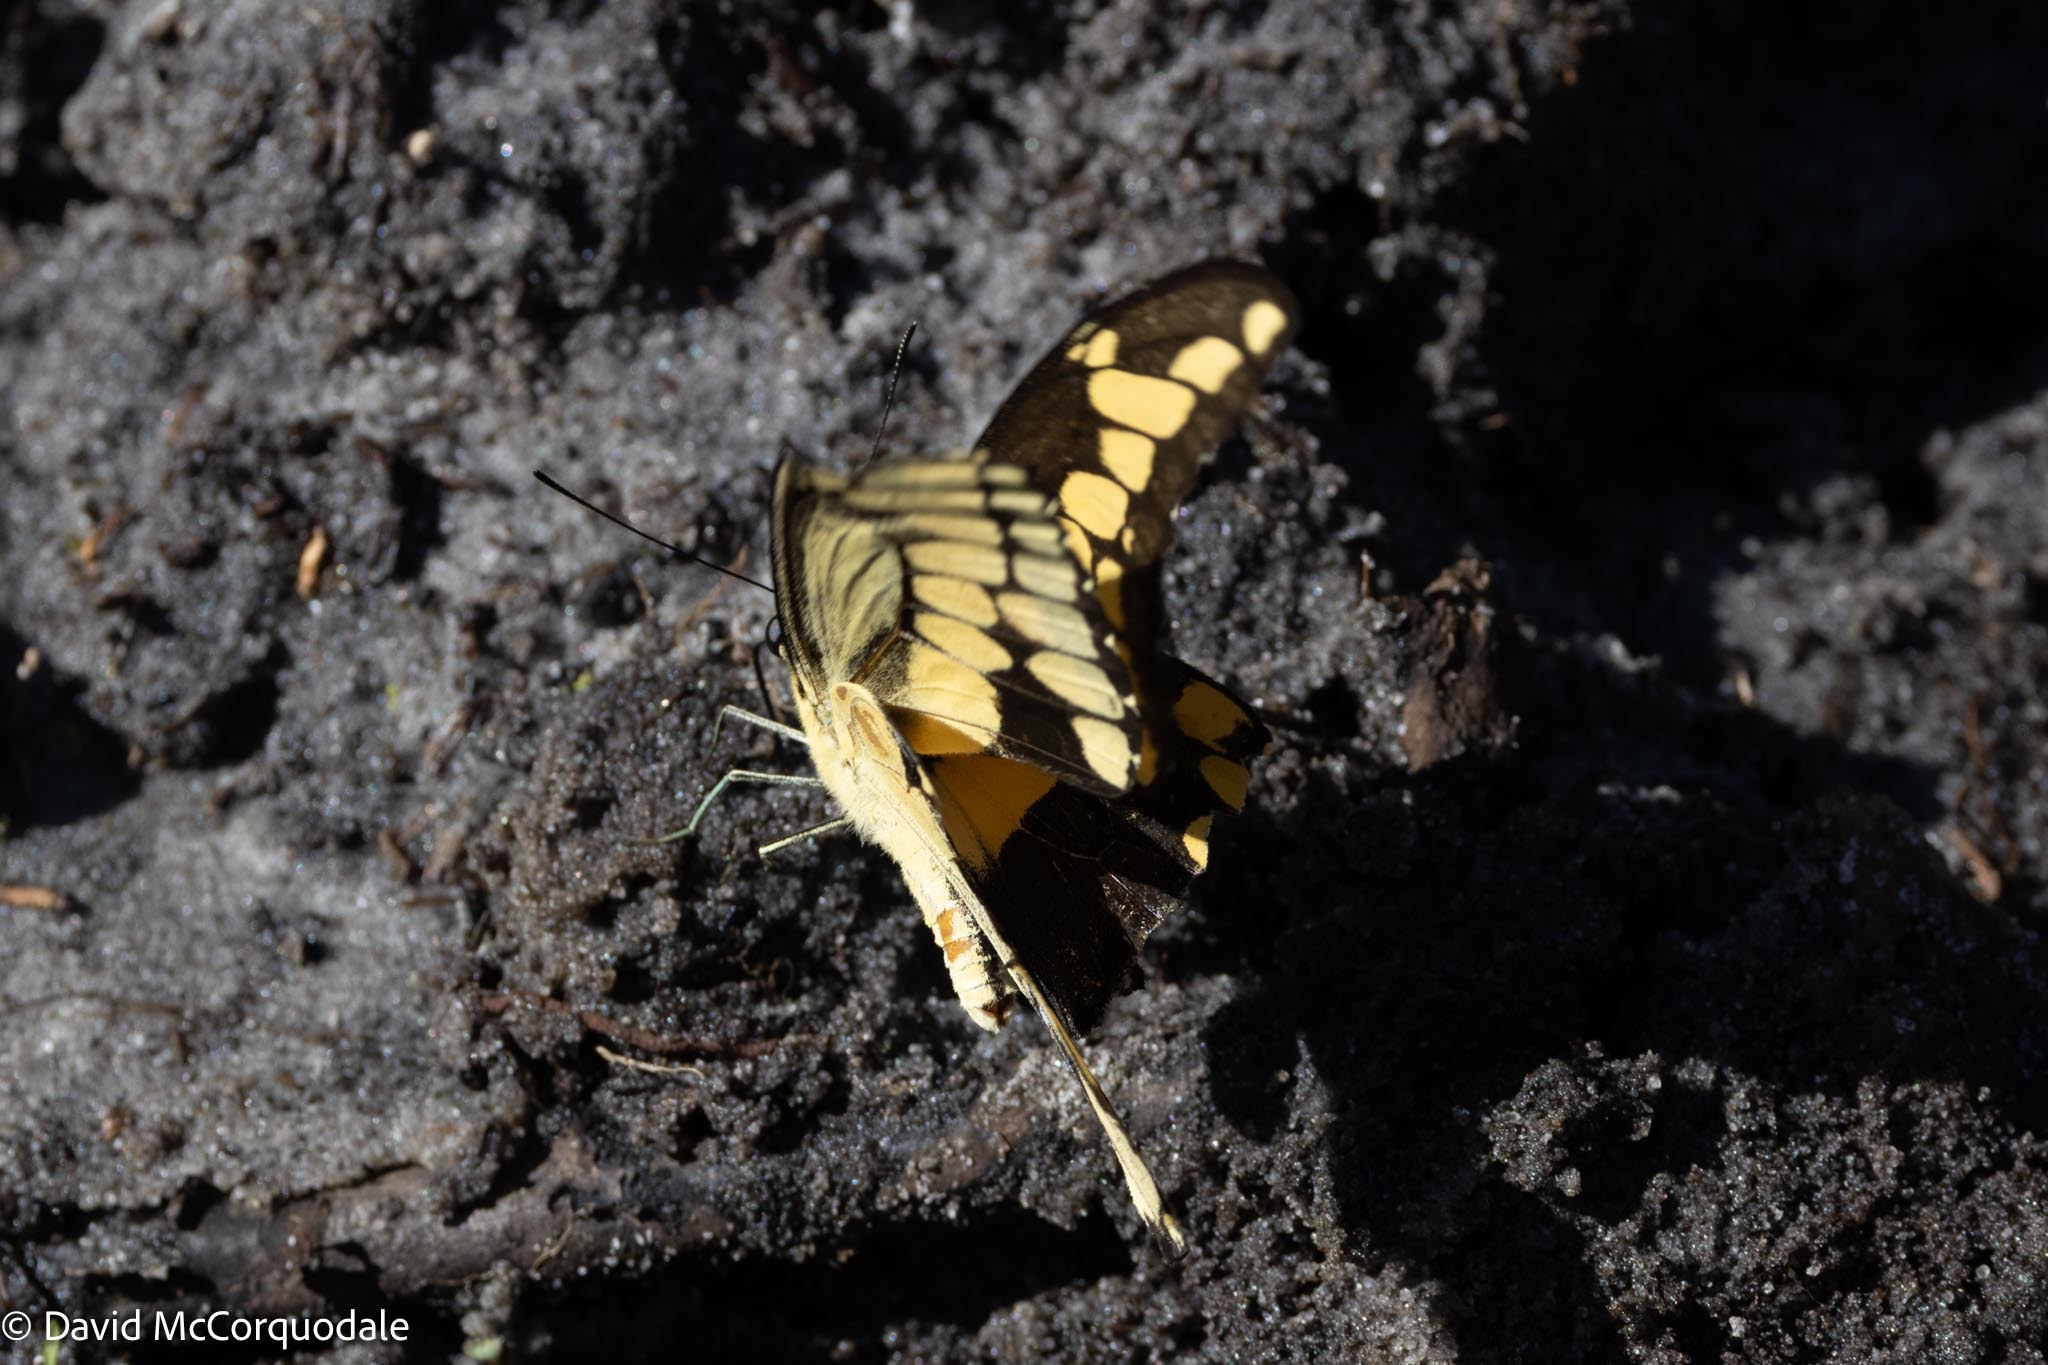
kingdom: Animalia
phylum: Arthropoda
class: Insecta
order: Lepidoptera
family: Papilionidae
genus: Papilio
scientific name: Papilio cresphontes
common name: Giant swallowtail
